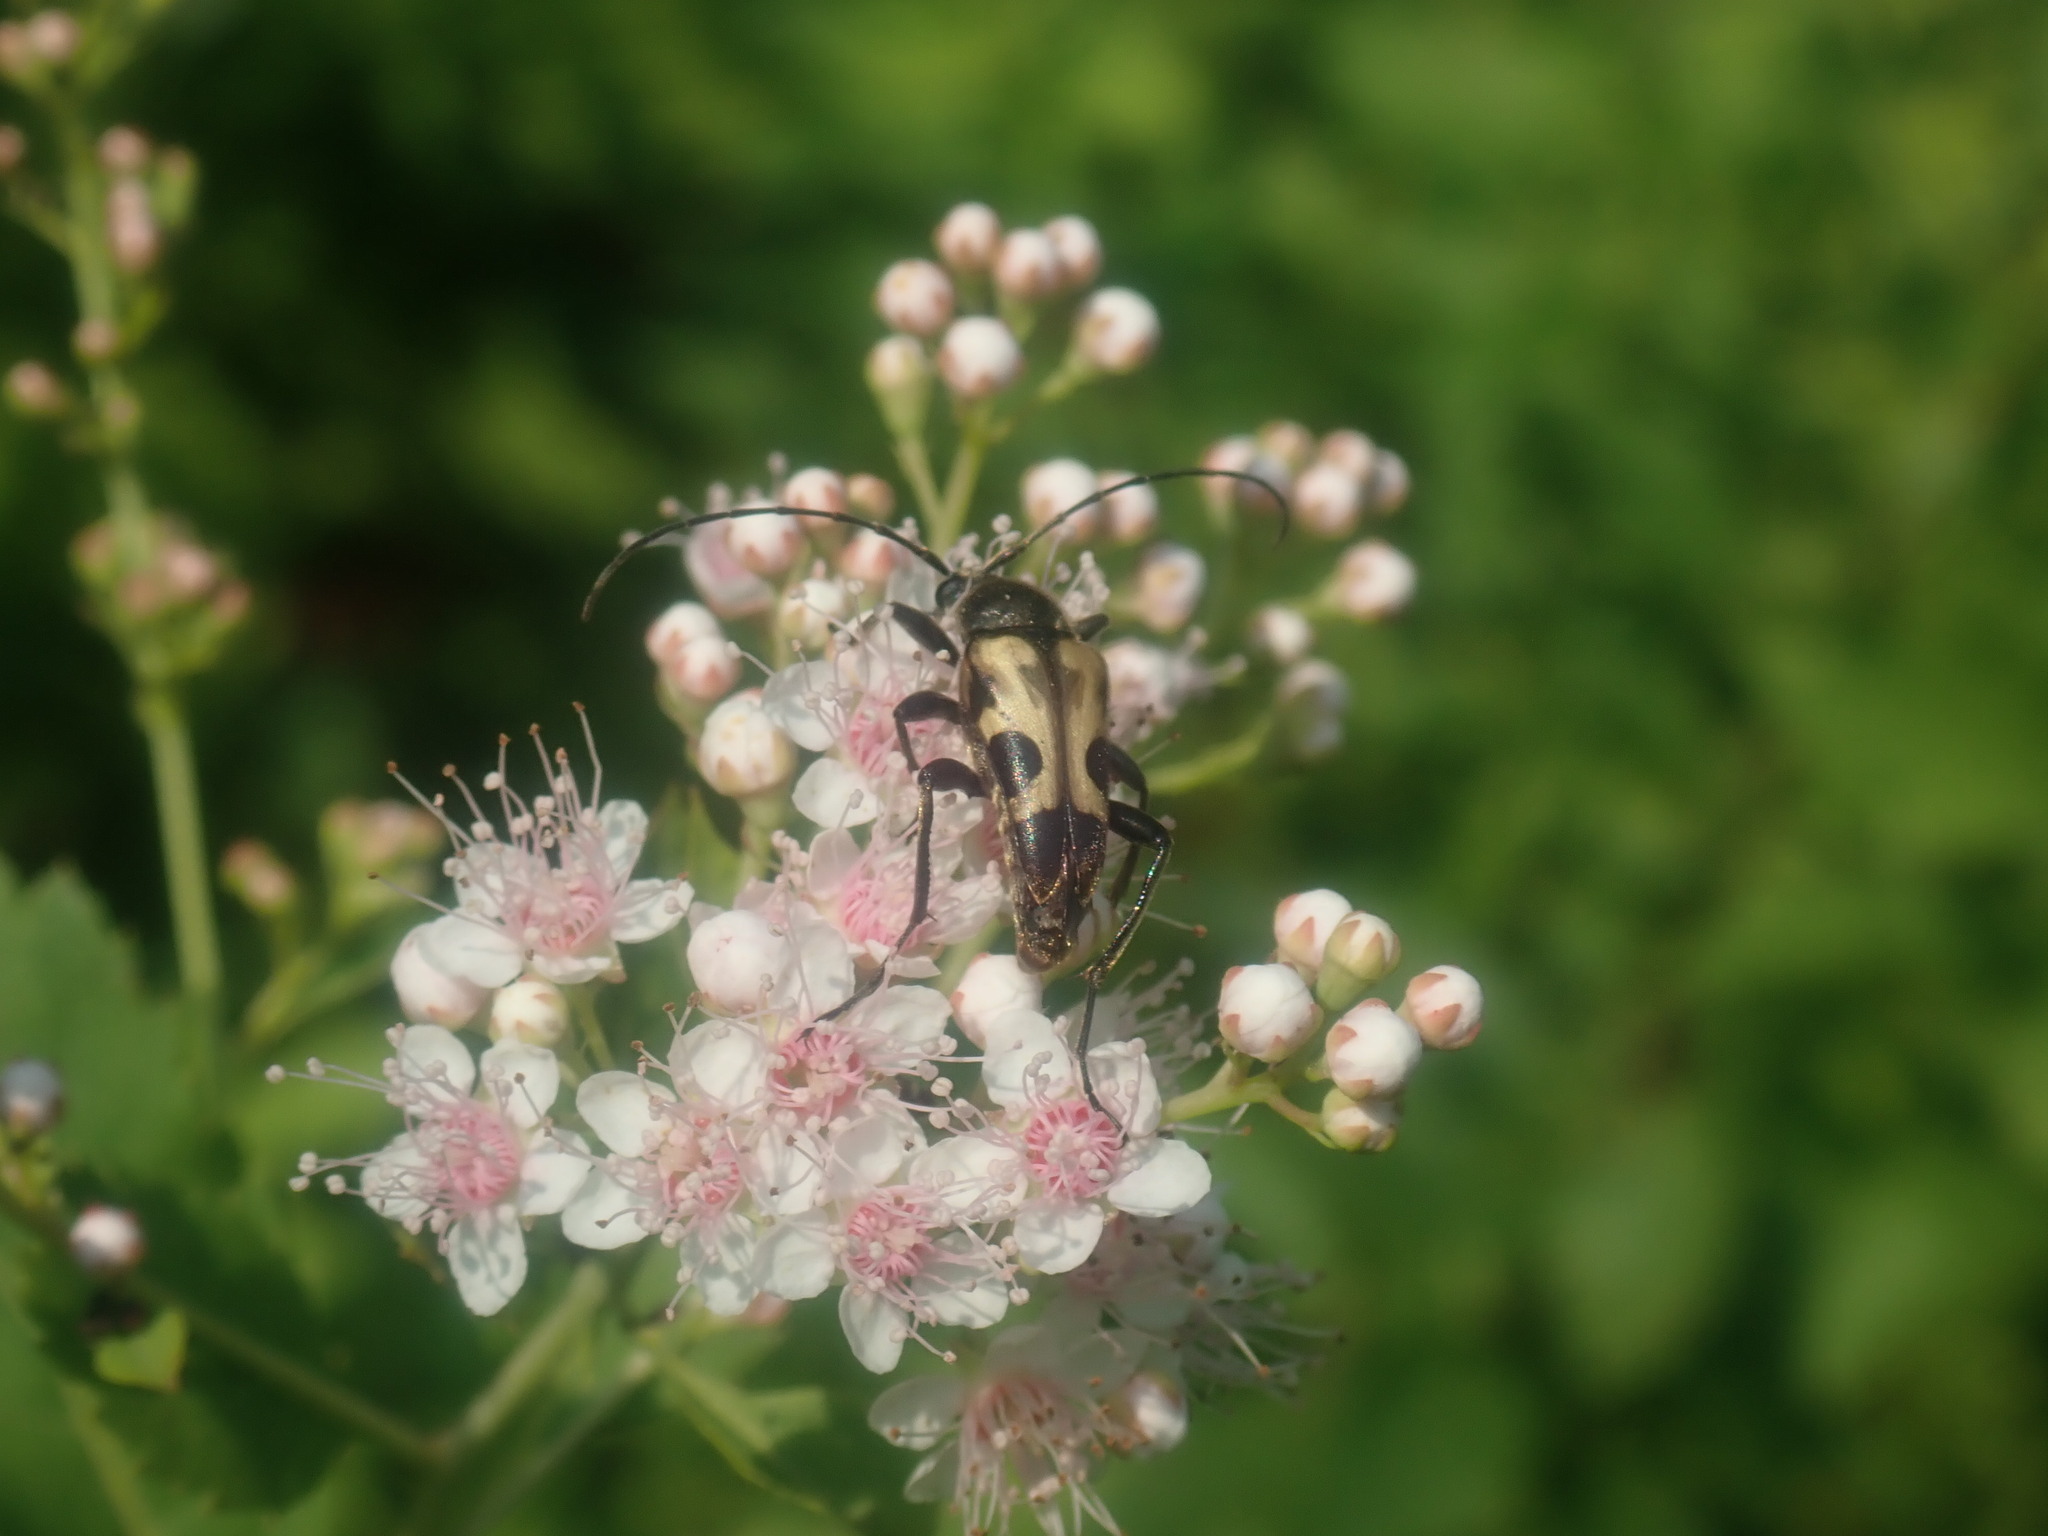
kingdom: Animalia
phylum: Arthropoda
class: Insecta
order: Coleoptera
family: Cerambycidae
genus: Judolia
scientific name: Judolia cordifera
